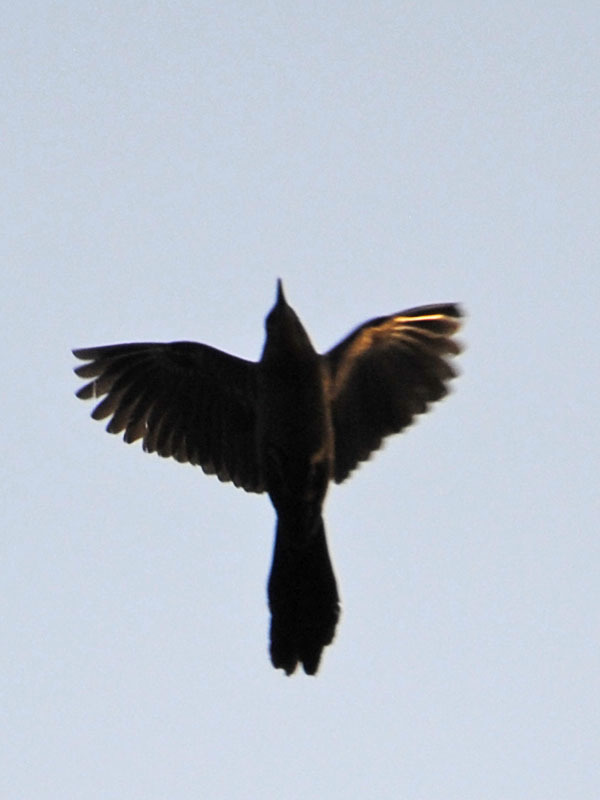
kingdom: Animalia
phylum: Chordata
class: Aves
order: Passeriformes
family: Icteridae
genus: Quiscalus
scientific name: Quiscalus mexicanus
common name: Great-tailed grackle
